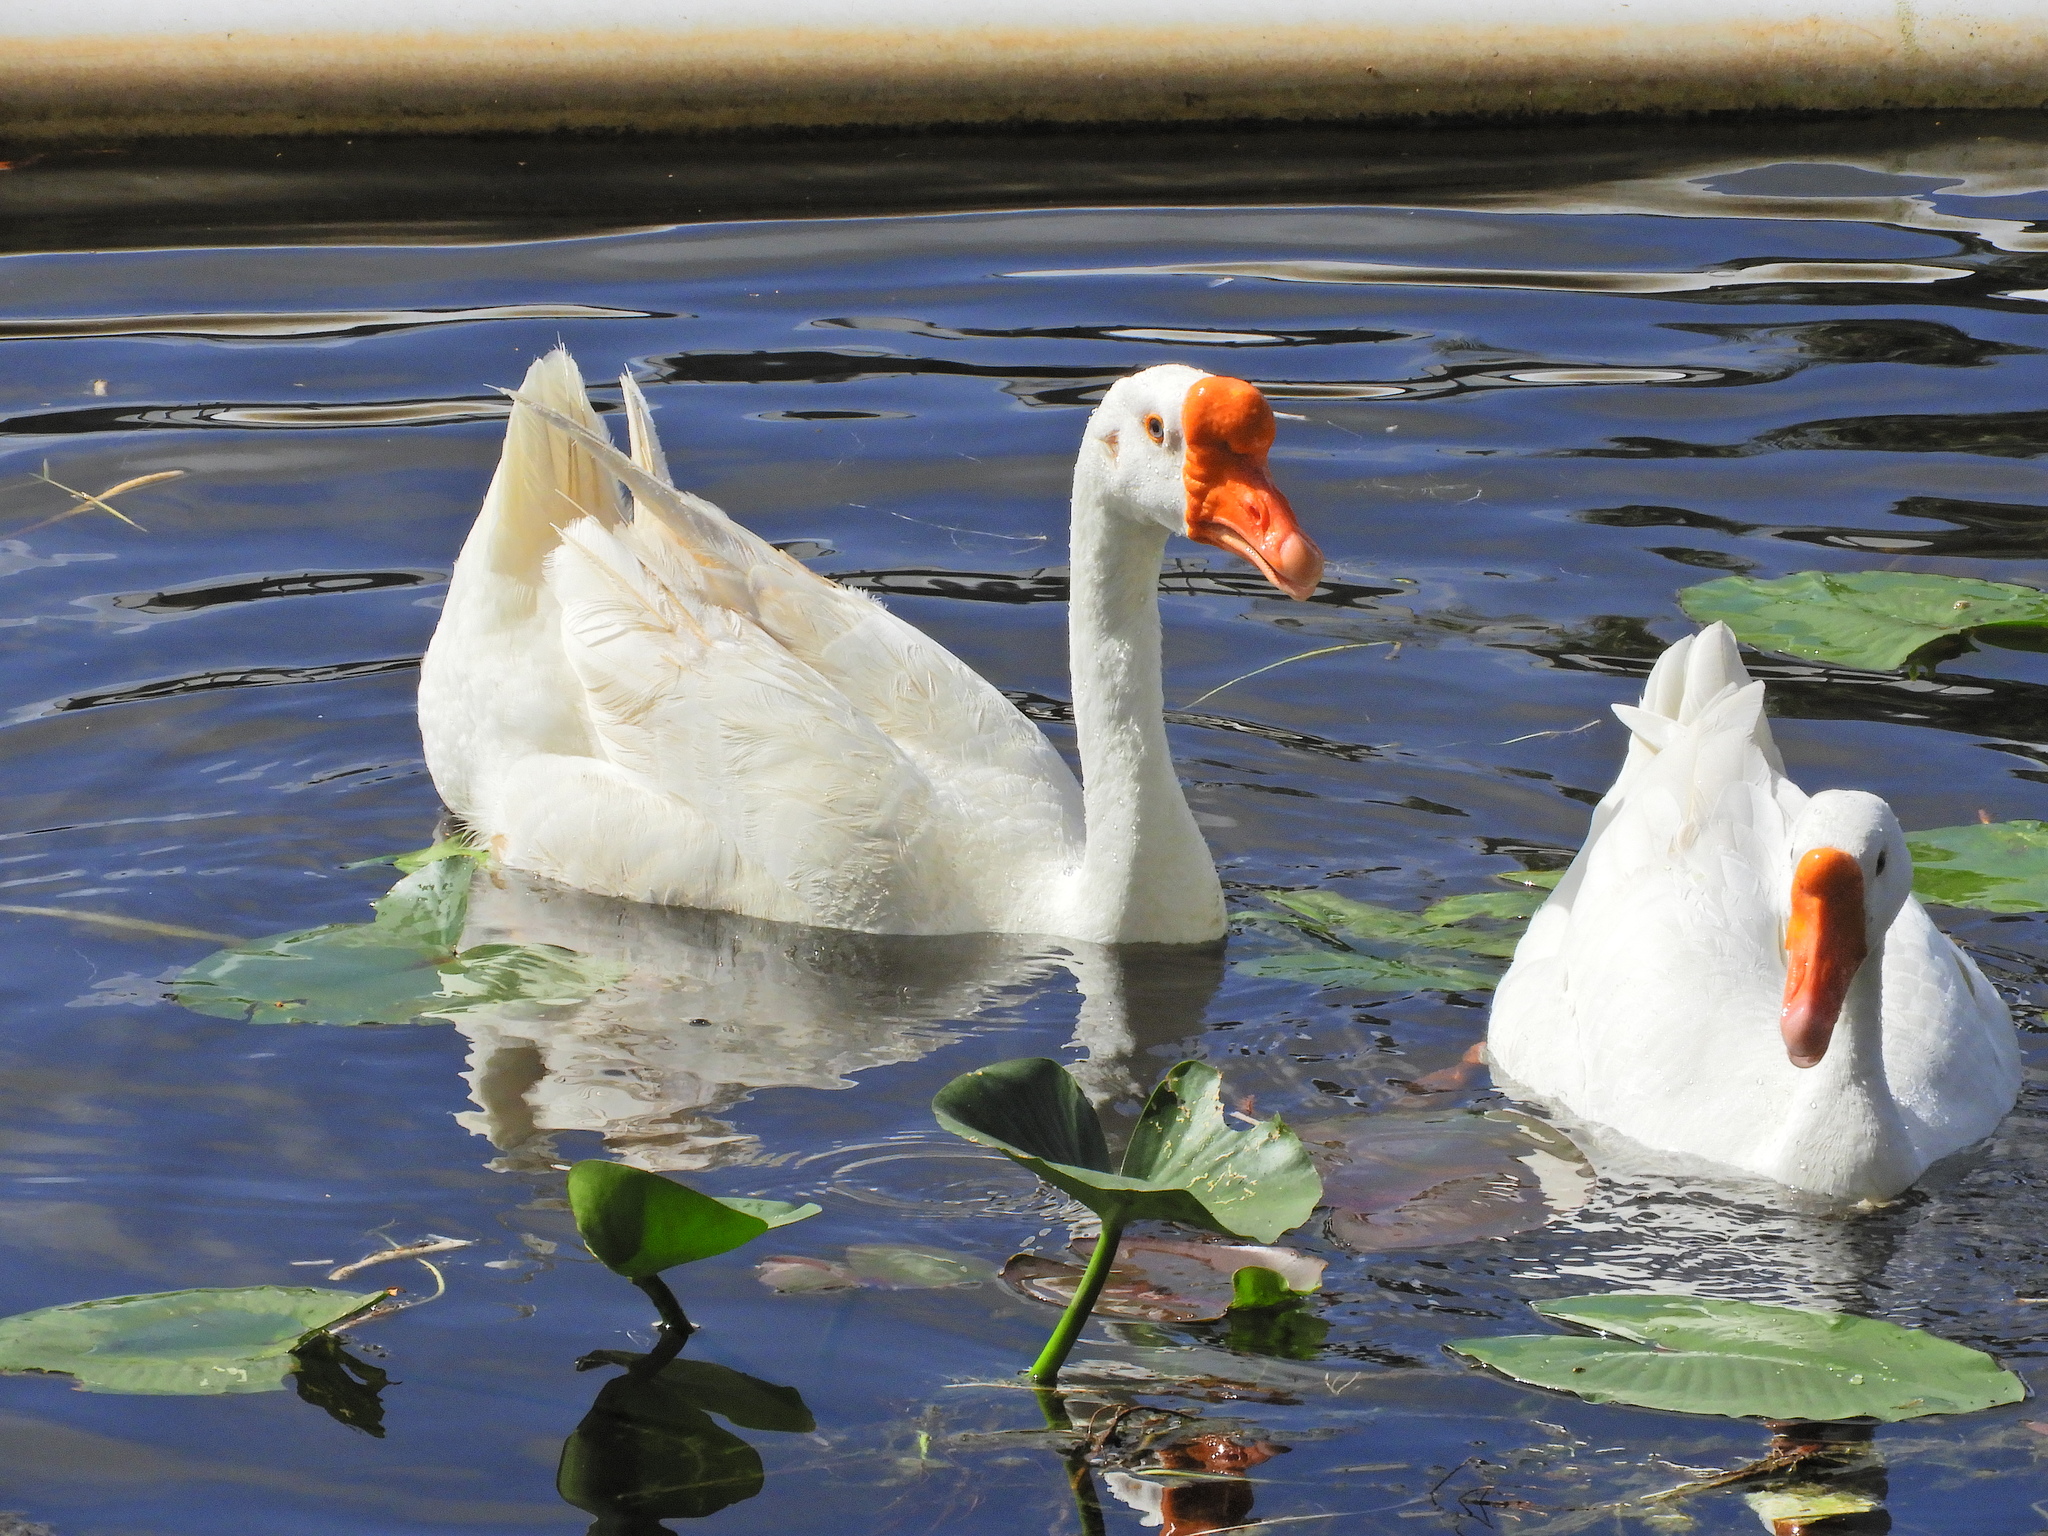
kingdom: Animalia
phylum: Chordata
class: Aves
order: Anseriformes
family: Anatidae
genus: Anser
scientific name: Anser cygnoides
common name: Swan goose
